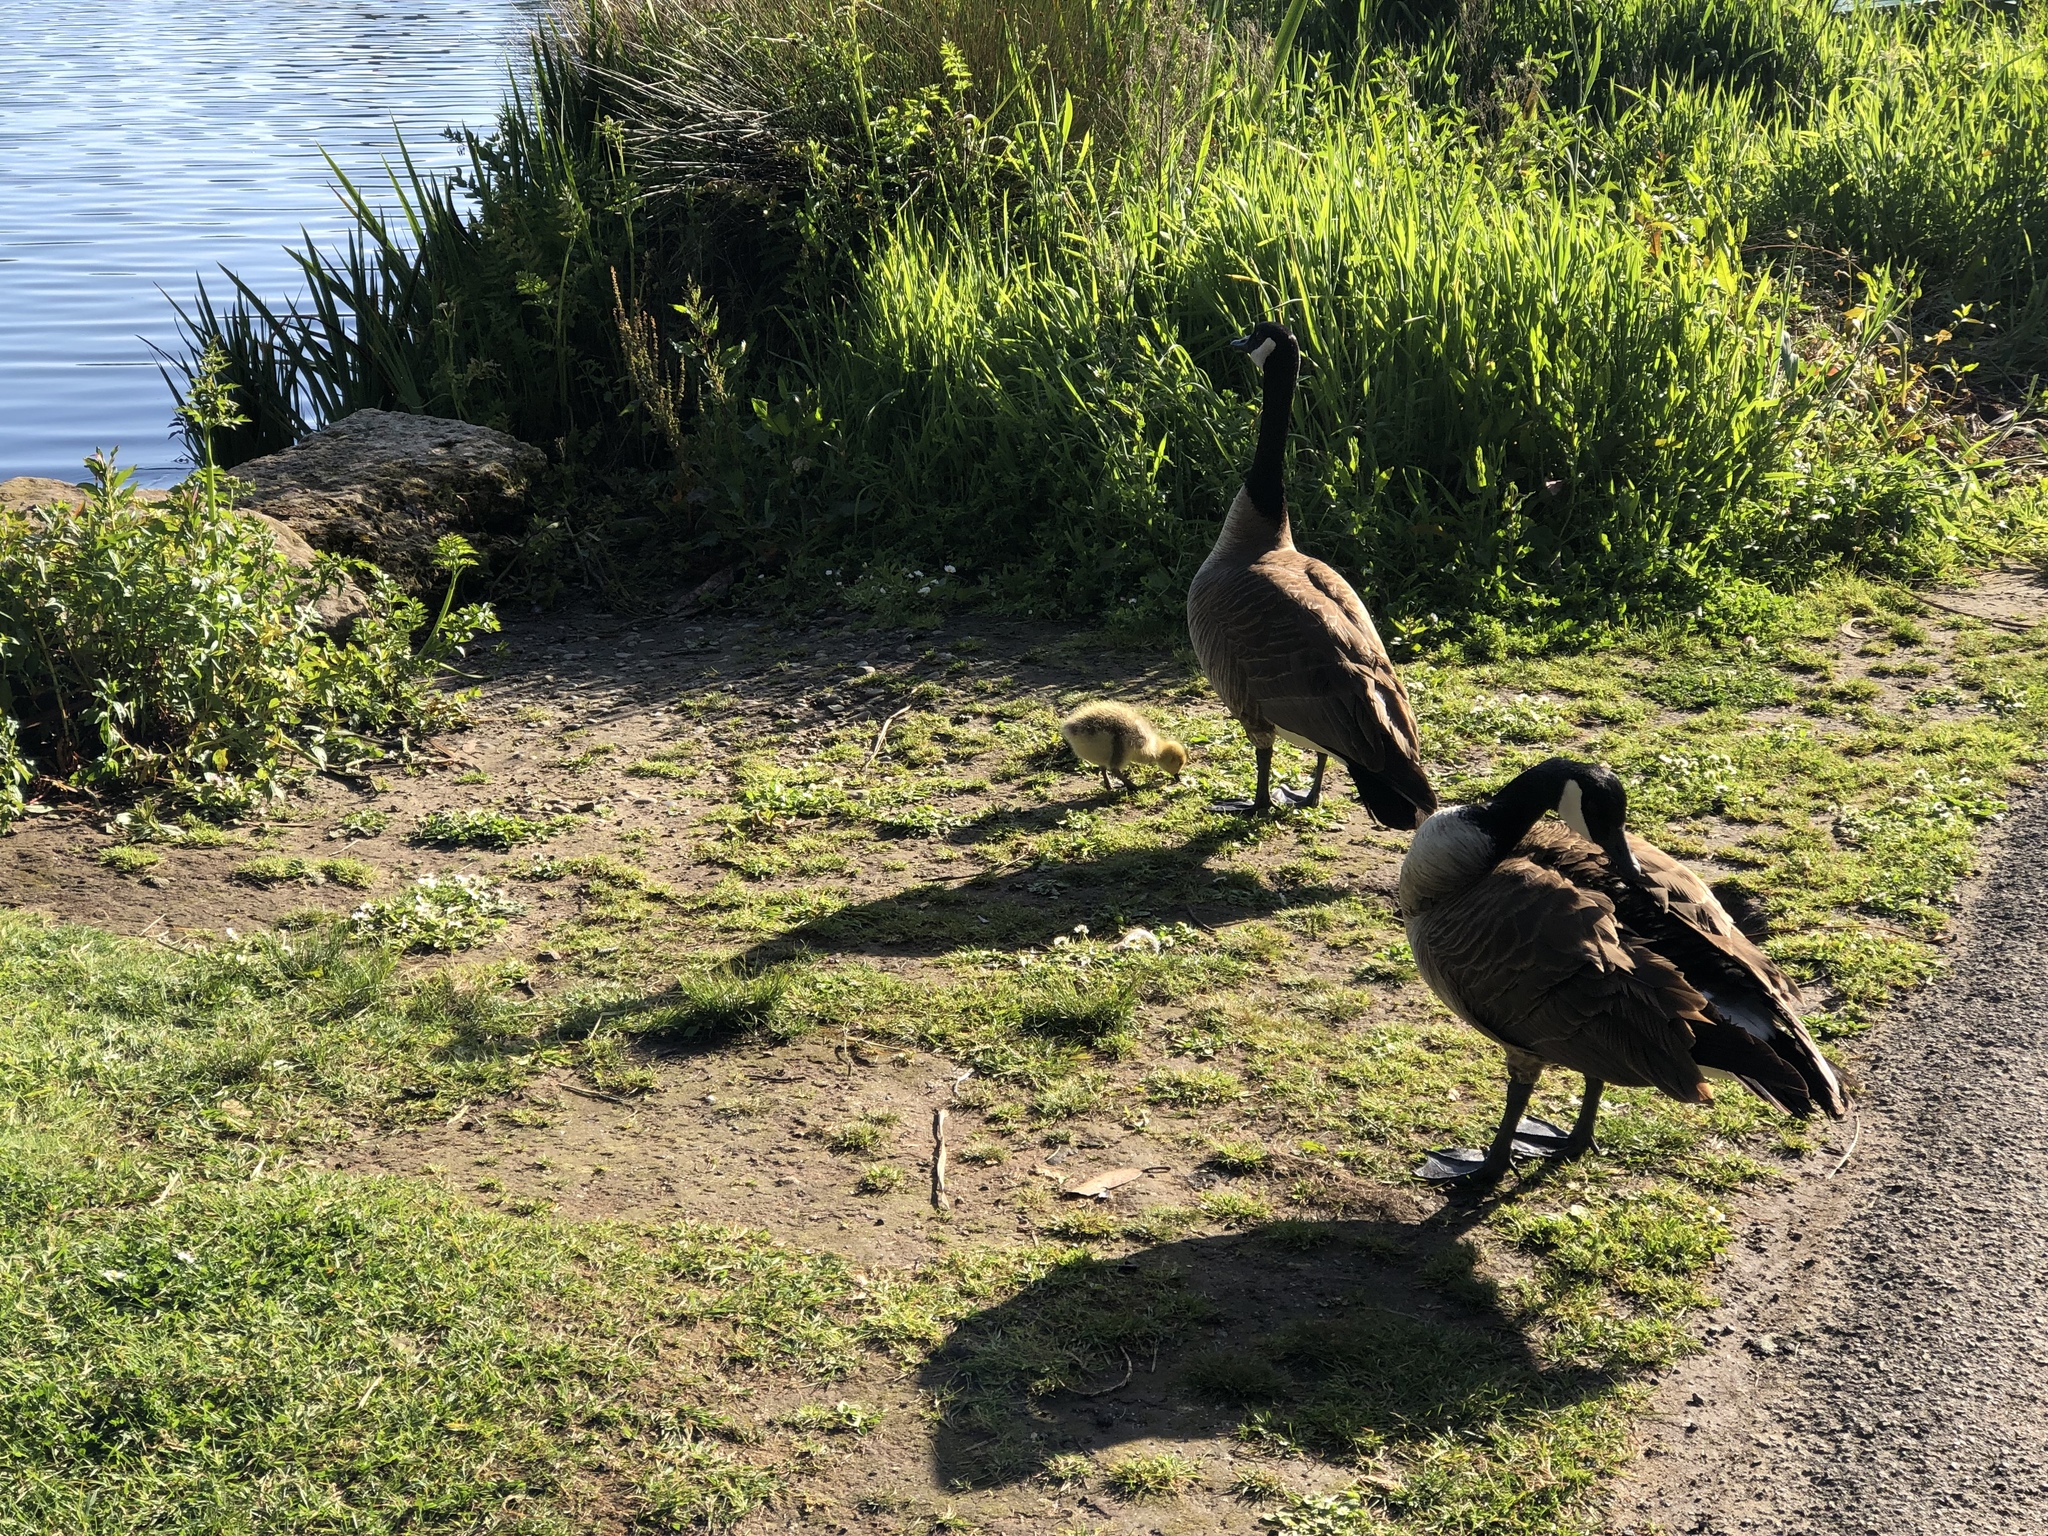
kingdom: Animalia
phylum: Chordata
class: Aves
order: Anseriformes
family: Anatidae
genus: Branta
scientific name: Branta canadensis
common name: Canada goose
